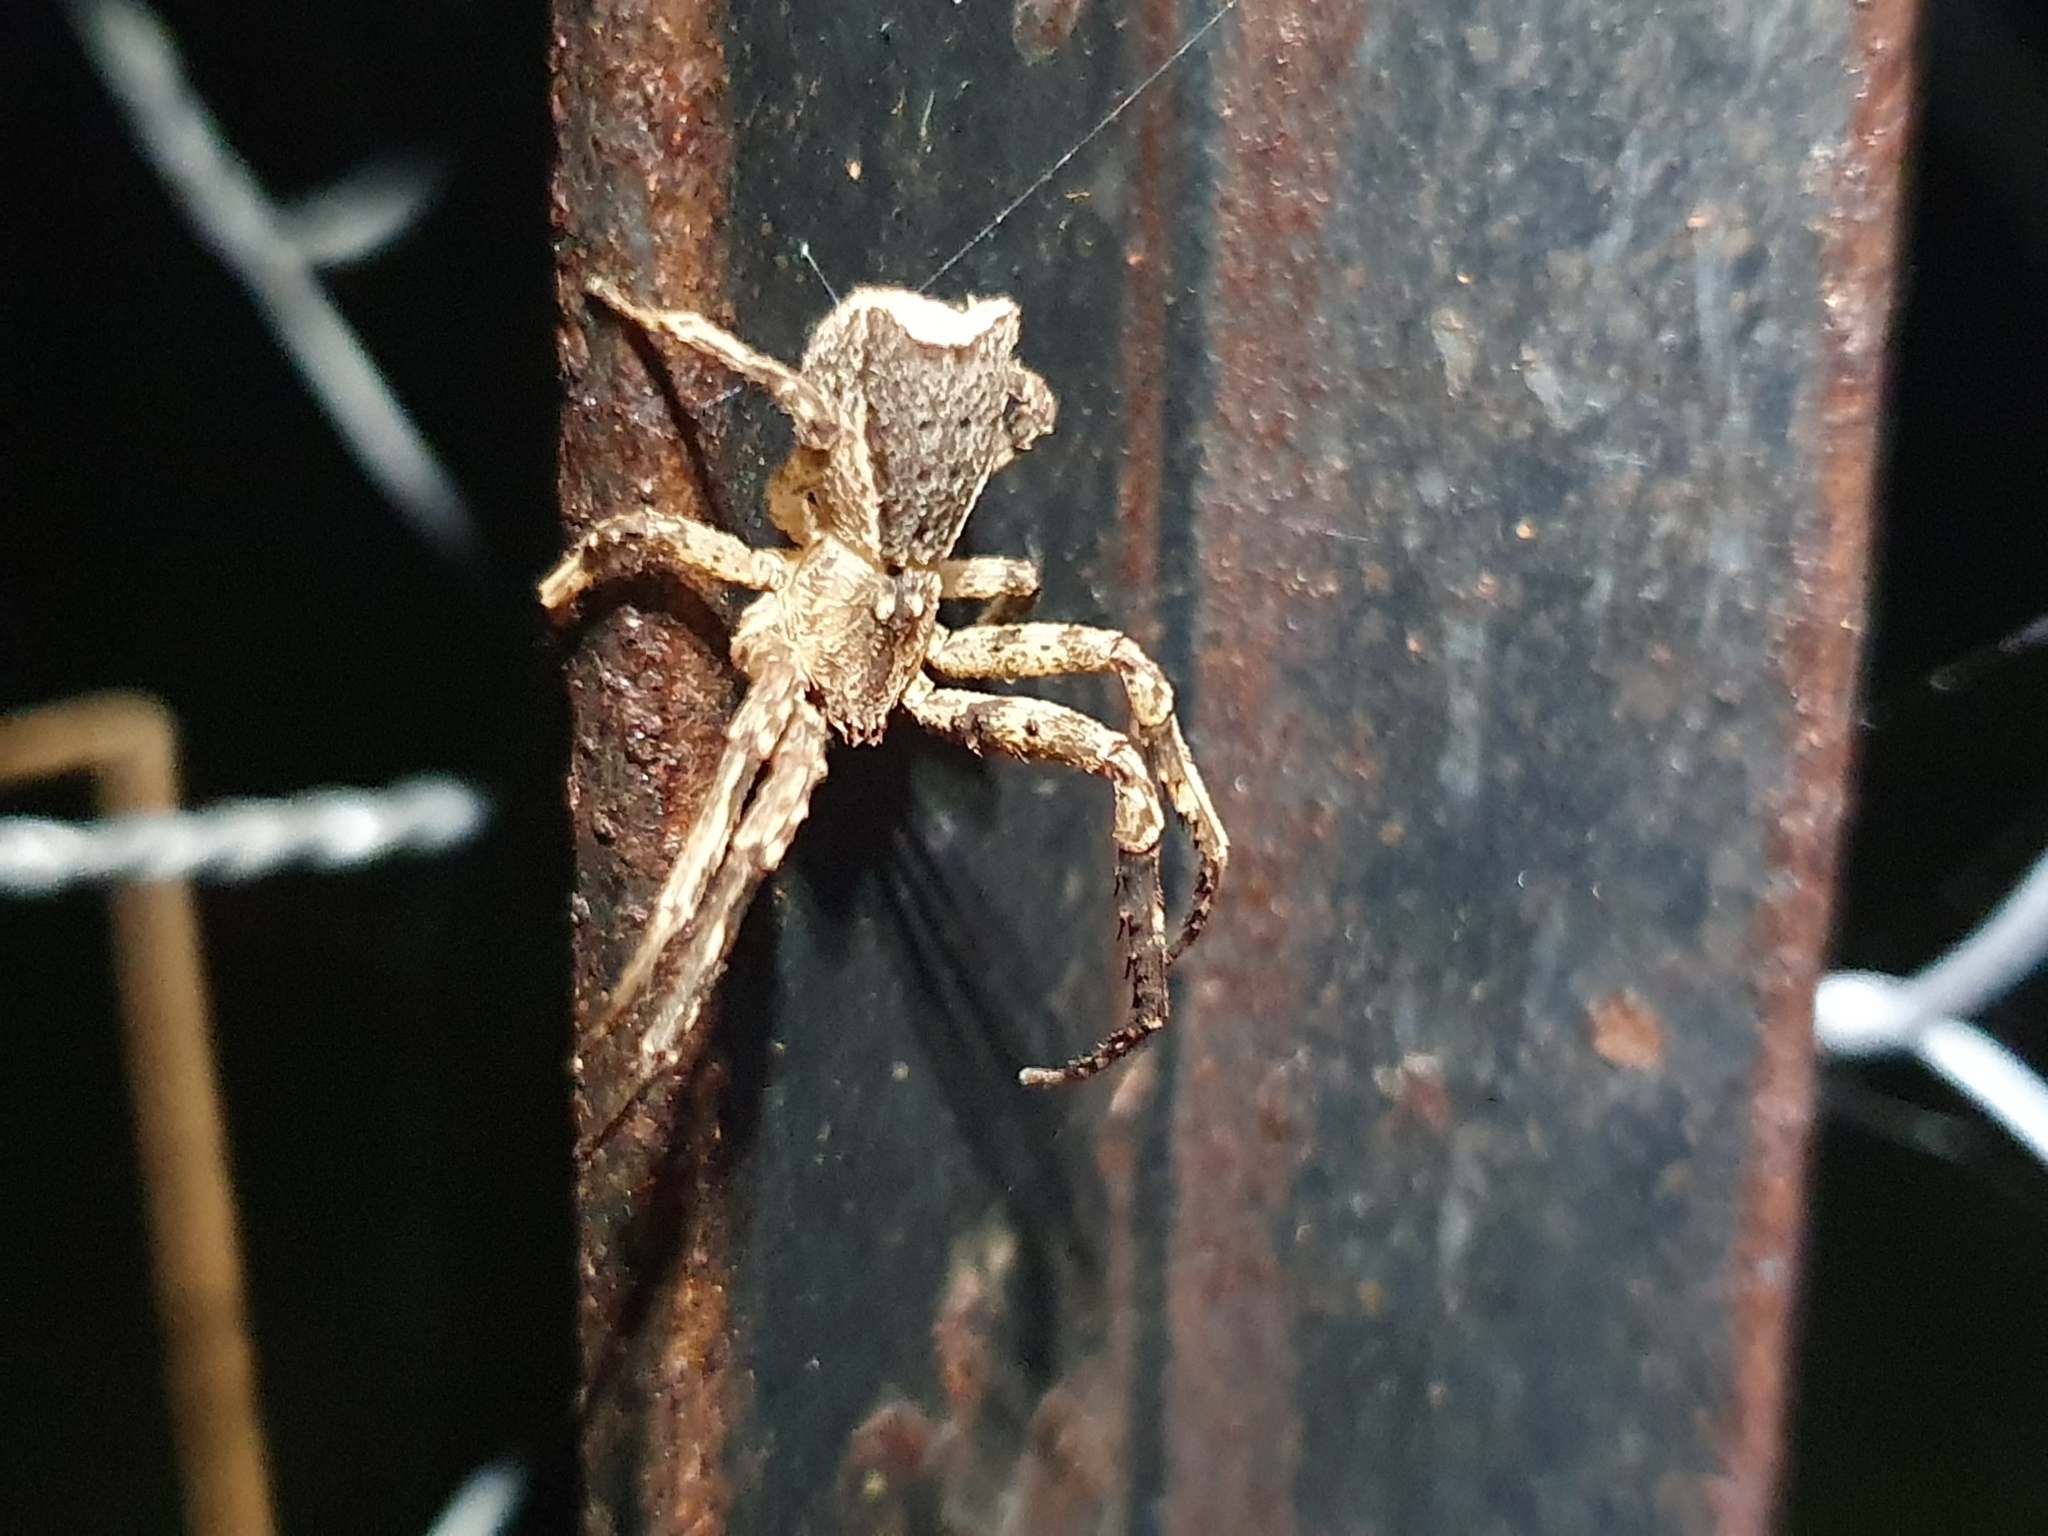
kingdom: Animalia
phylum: Arthropoda
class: Arachnida
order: Araneae
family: Thomisidae
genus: Sidymella
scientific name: Sidymella angularis
